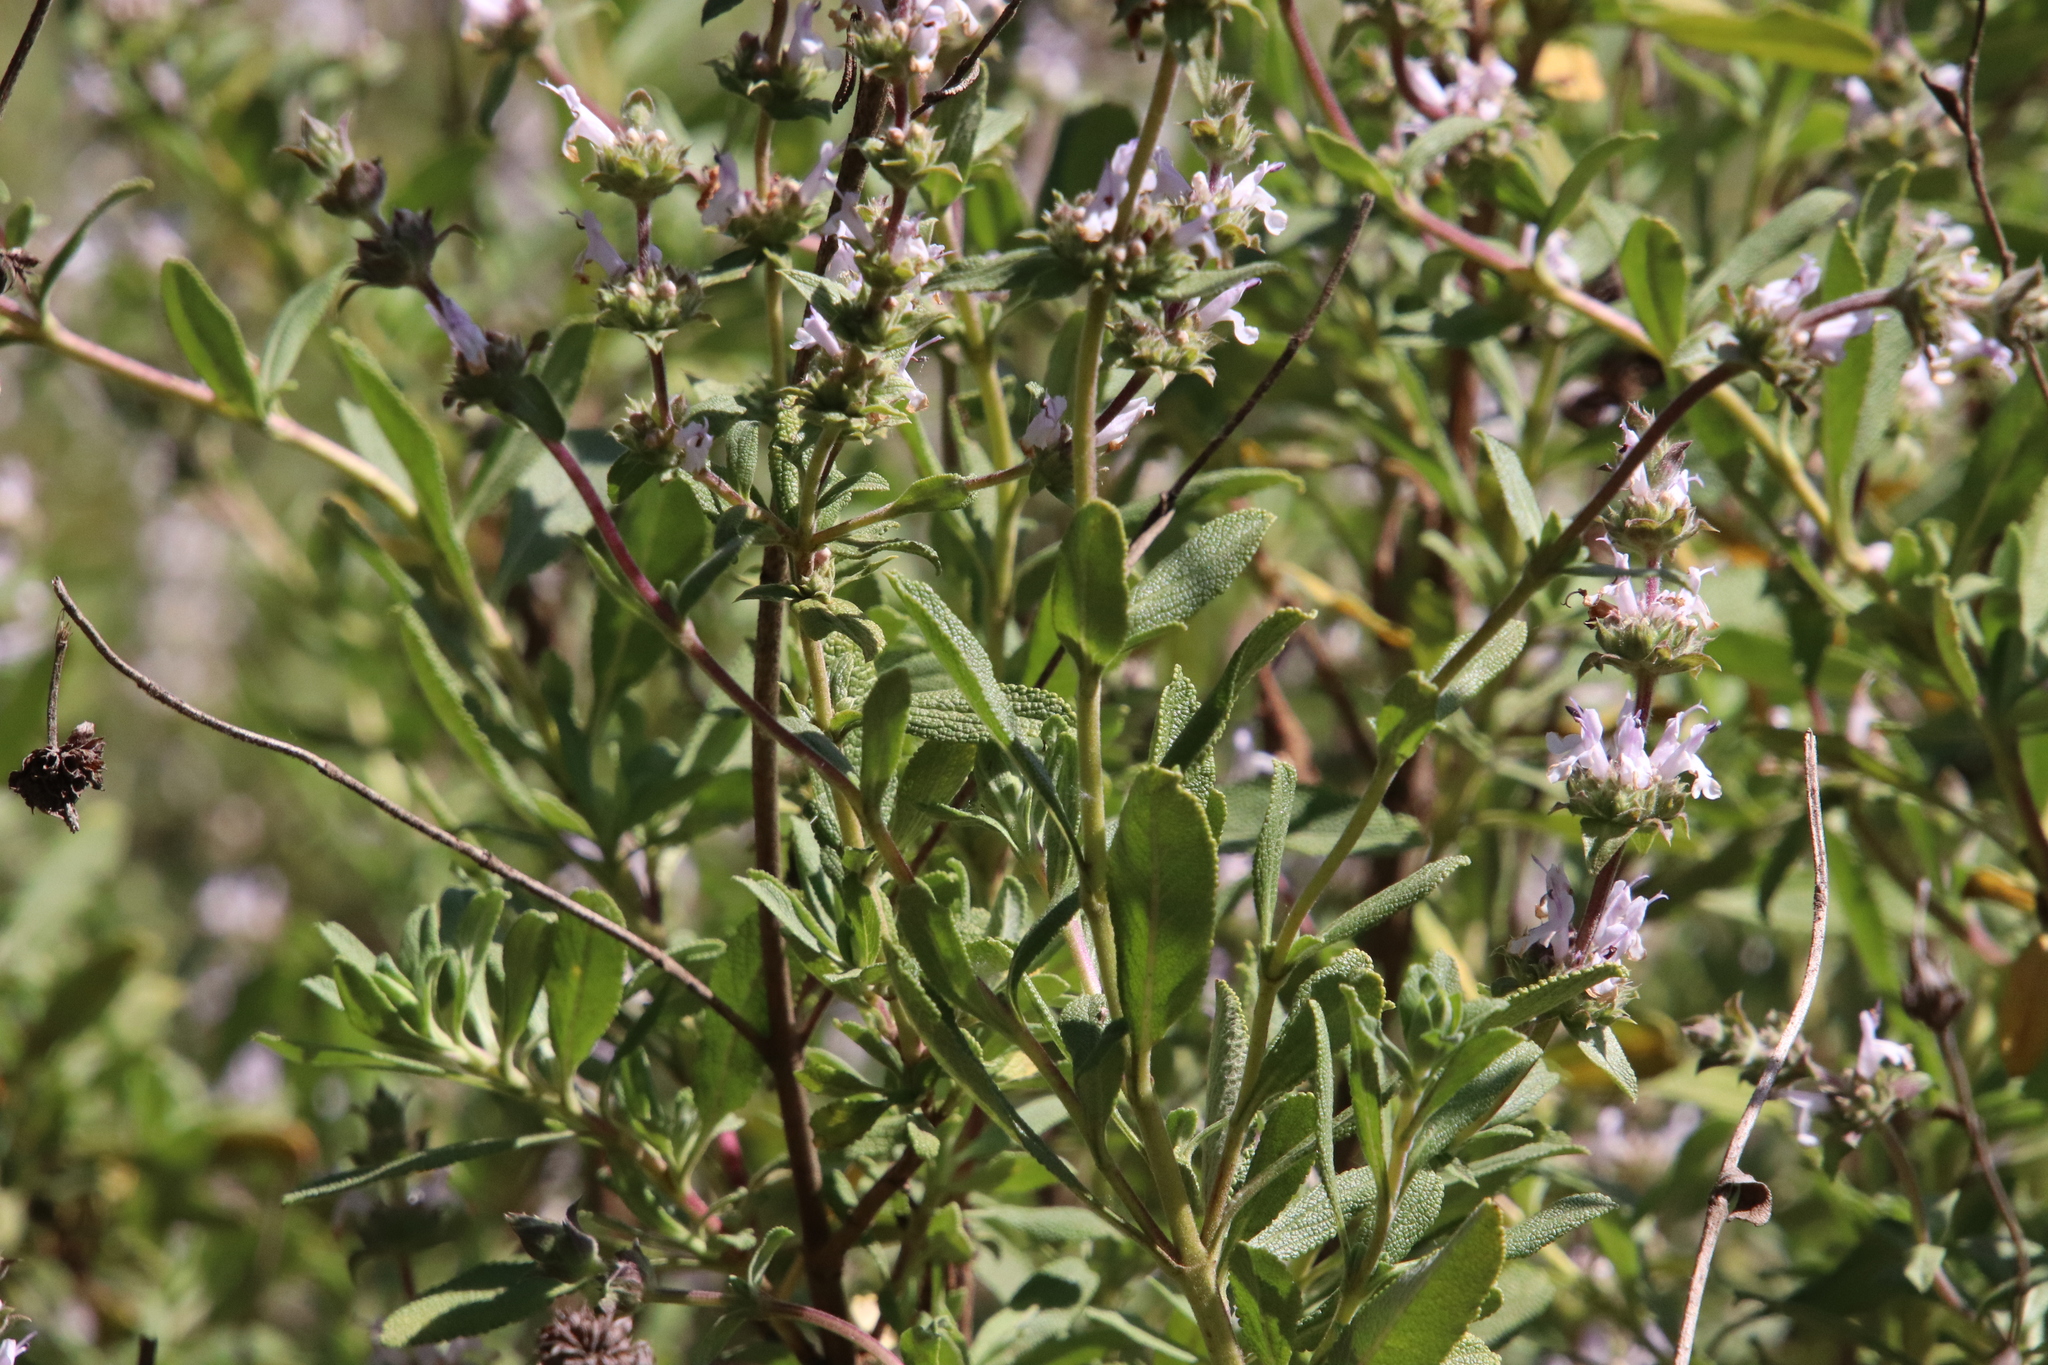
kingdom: Plantae
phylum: Tracheophyta
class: Magnoliopsida
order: Lamiales
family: Lamiaceae
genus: Salvia
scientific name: Salvia mellifera
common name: Black sage
